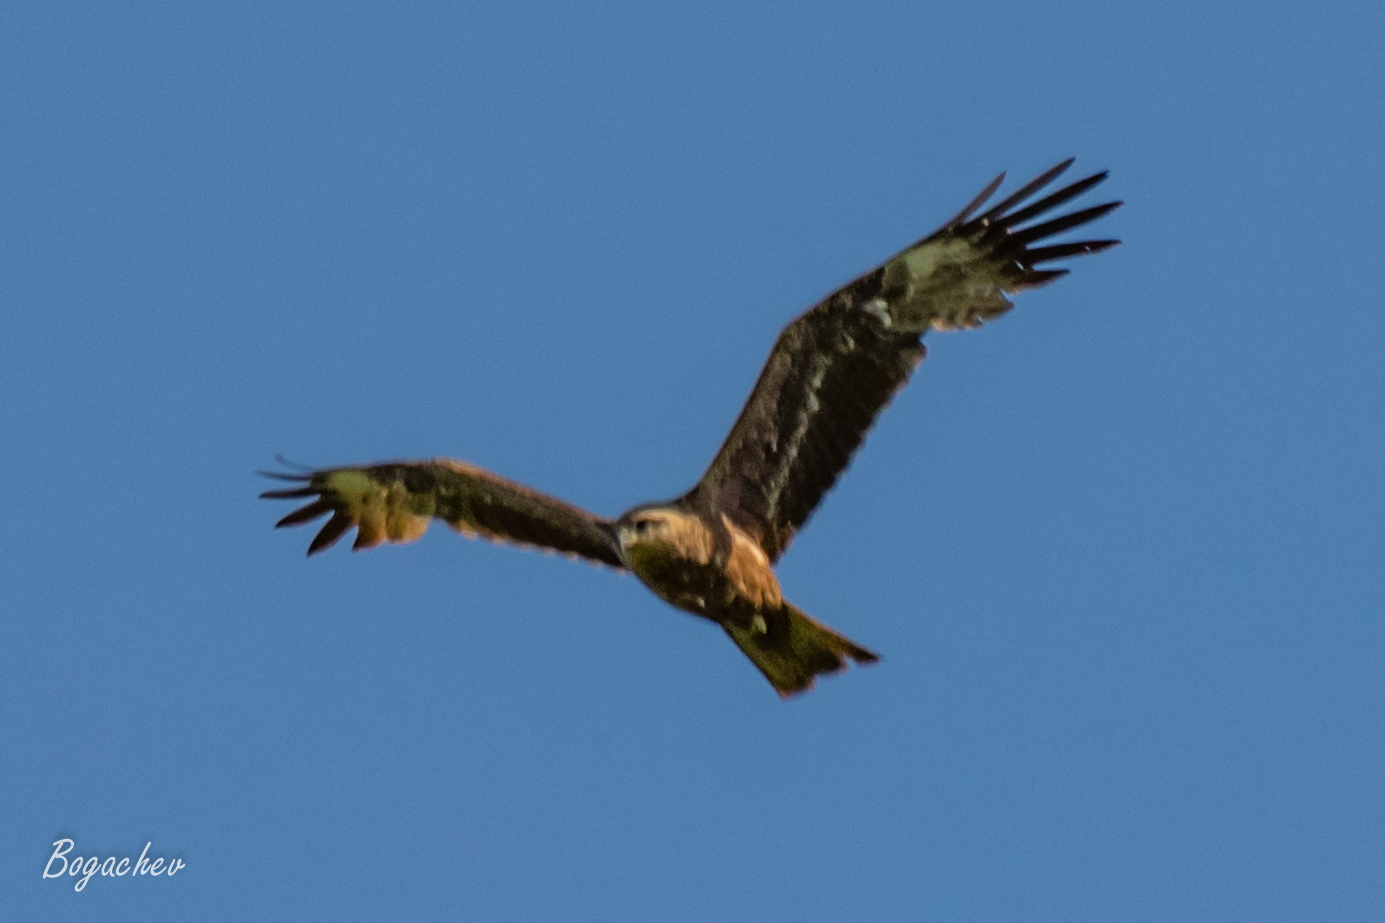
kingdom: Animalia
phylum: Chordata
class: Aves
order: Accipitriformes
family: Accipitridae
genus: Milvus
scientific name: Milvus migrans
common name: Black kite
